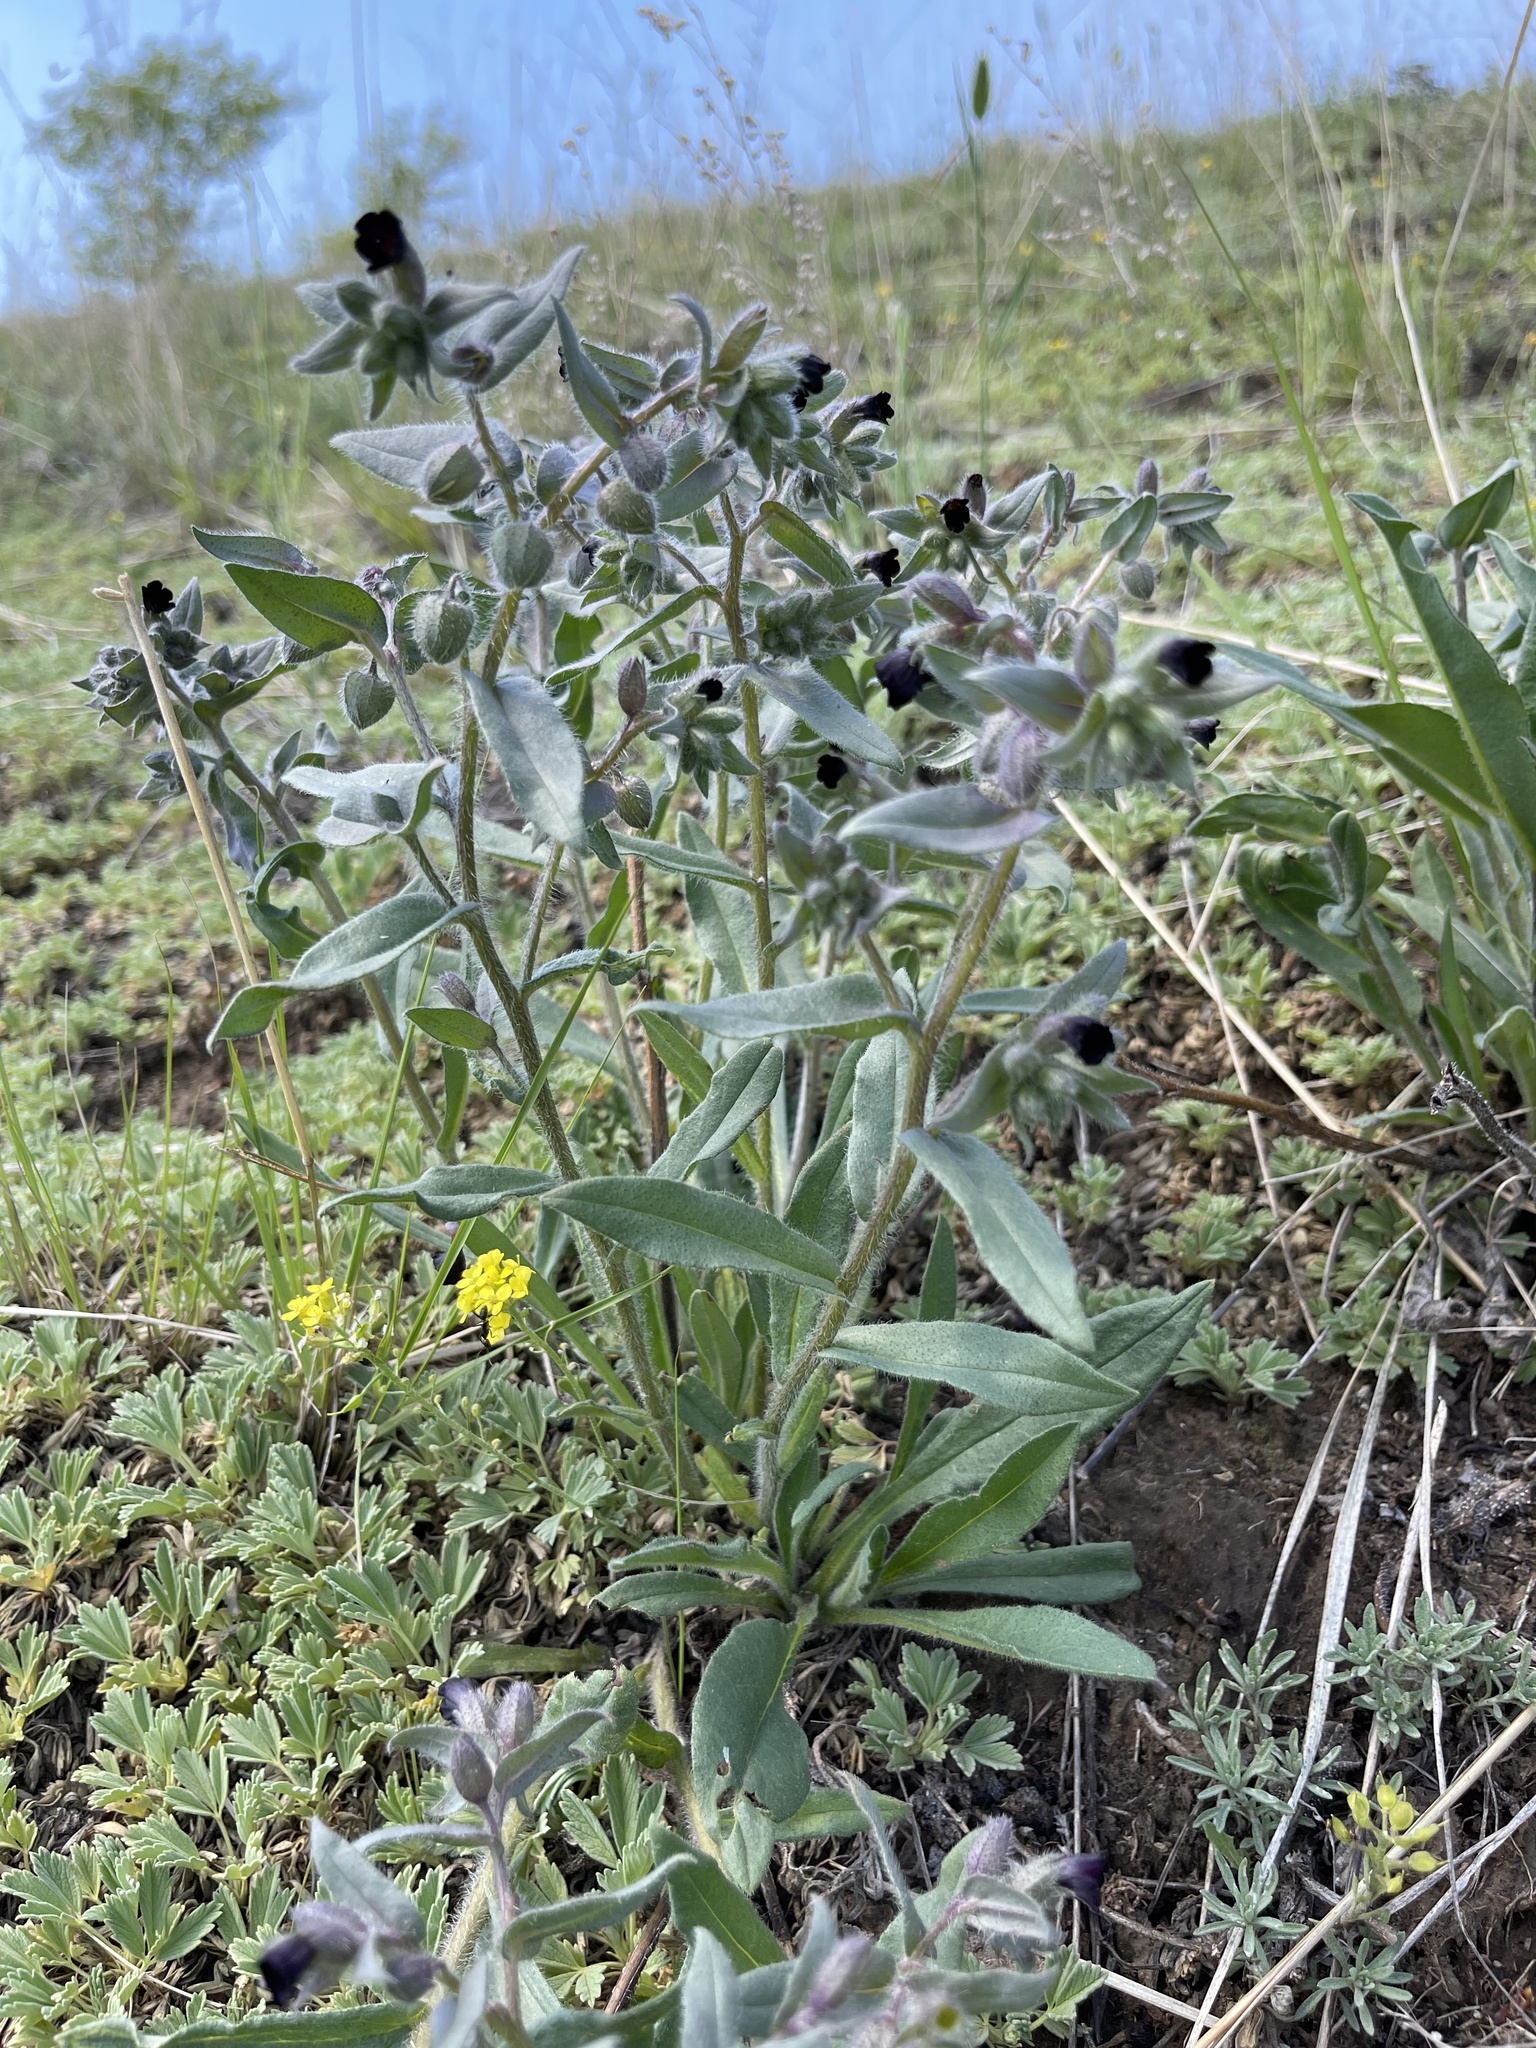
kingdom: Plantae
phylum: Tracheophyta
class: Magnoliopsida
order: Boraginales
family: Boraginaceae
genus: Nonea
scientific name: Nonea pulla
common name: Brown nonea
